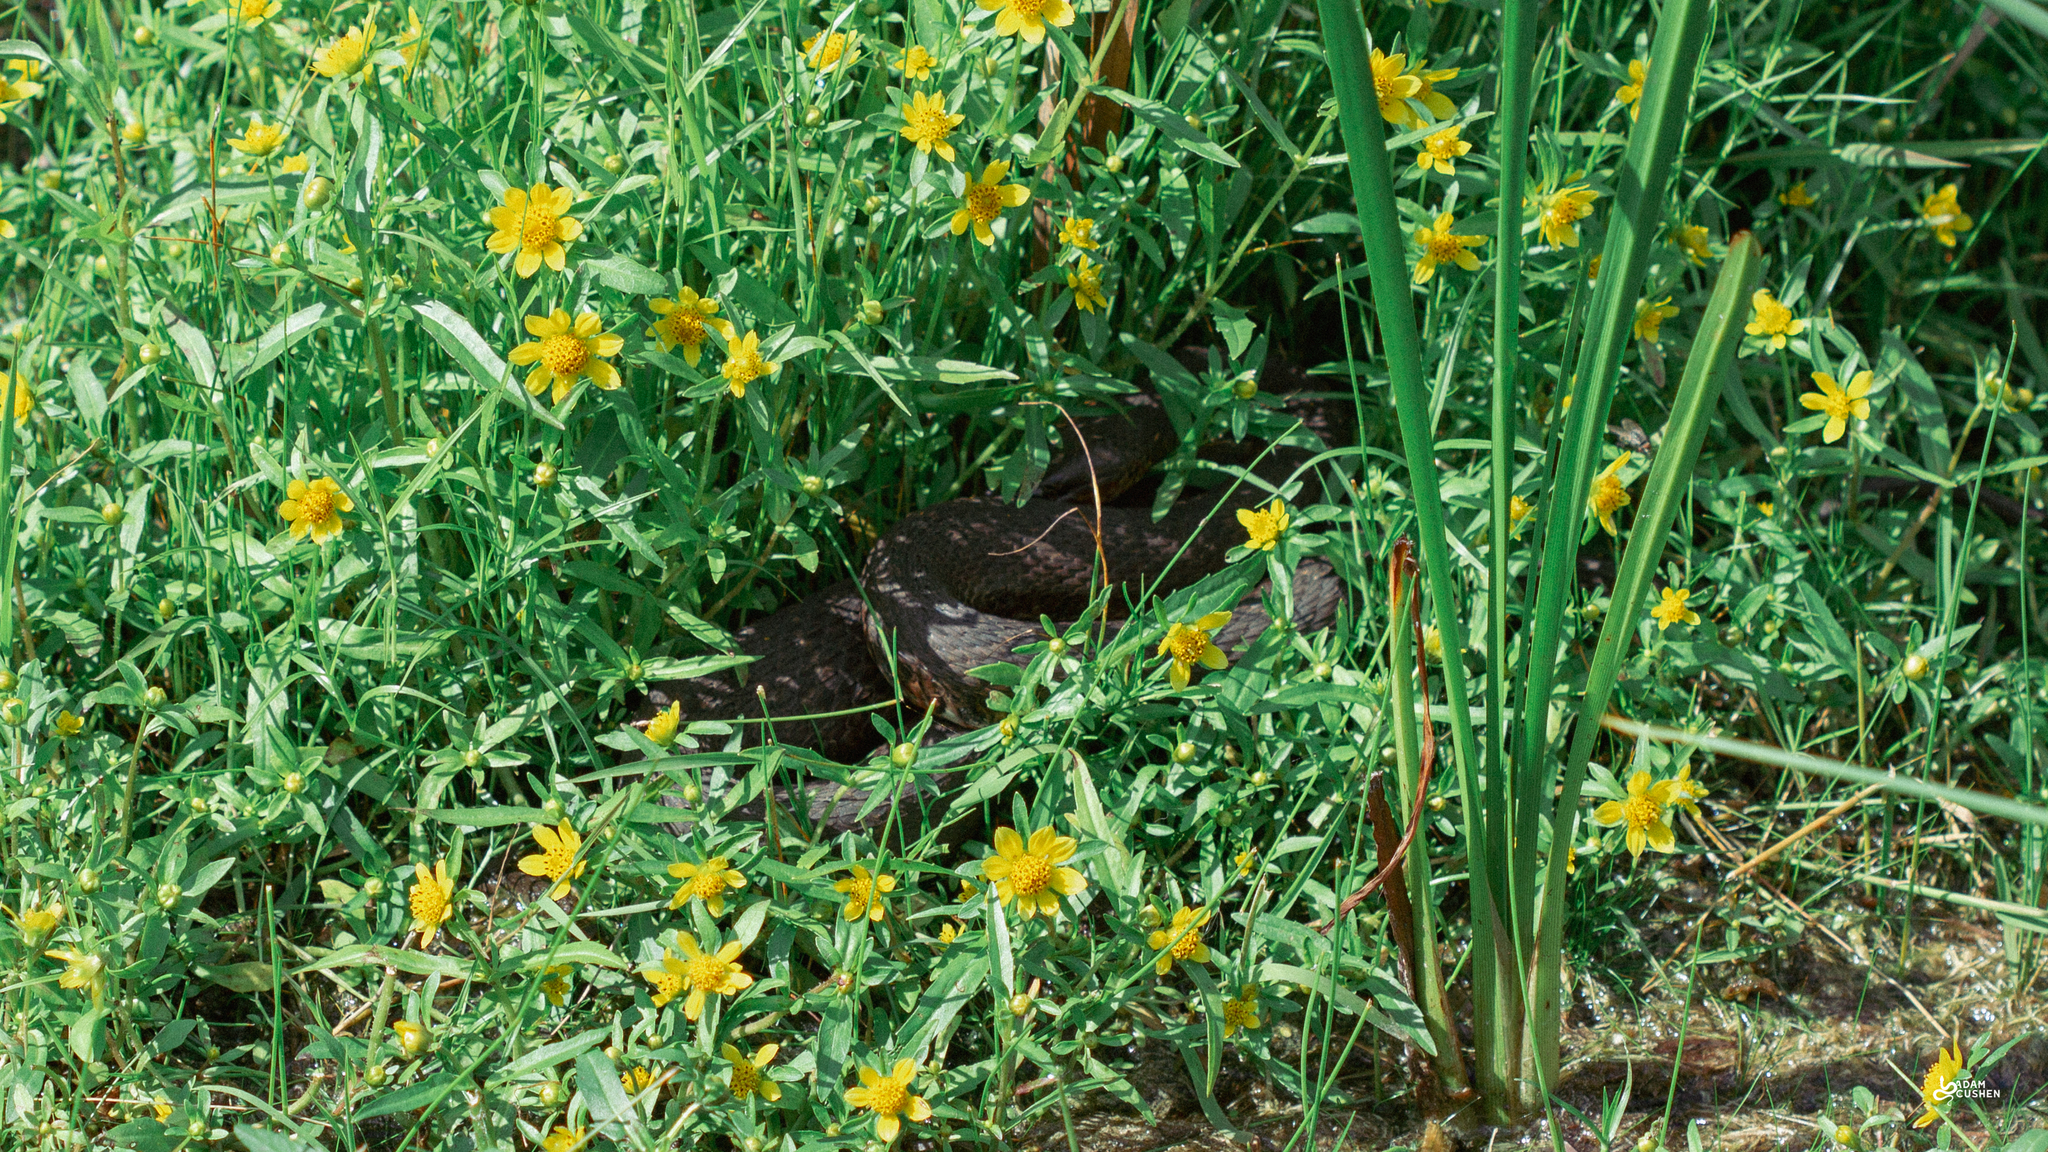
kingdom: Animalia
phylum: Chordata
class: Squamata
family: Colubridae
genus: Nerodia
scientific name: Nerodia sipedon
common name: Northern water snake
